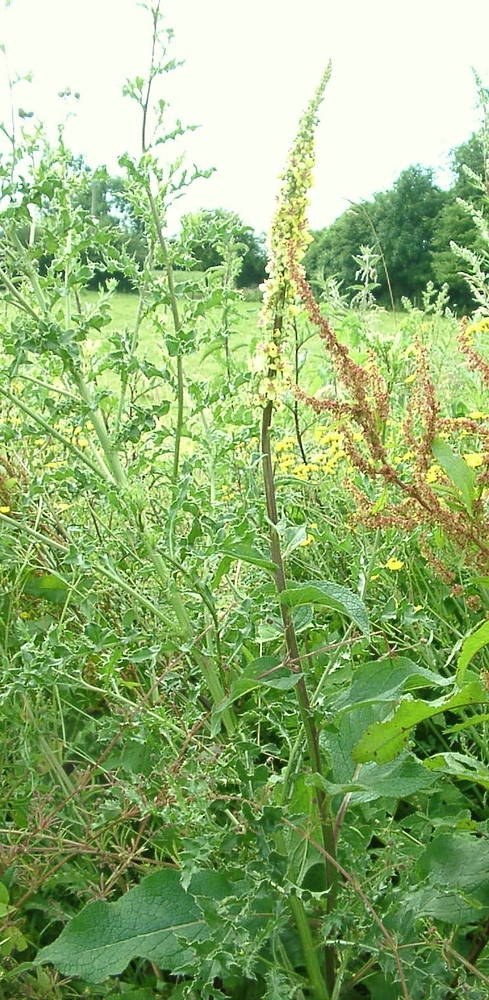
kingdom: Plantae
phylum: Tracheophyta
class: Magnoliopsida
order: Lamiales
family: Scrophulariaceae
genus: Verbascum
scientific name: Verbascum nigrum
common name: Dark mullein
